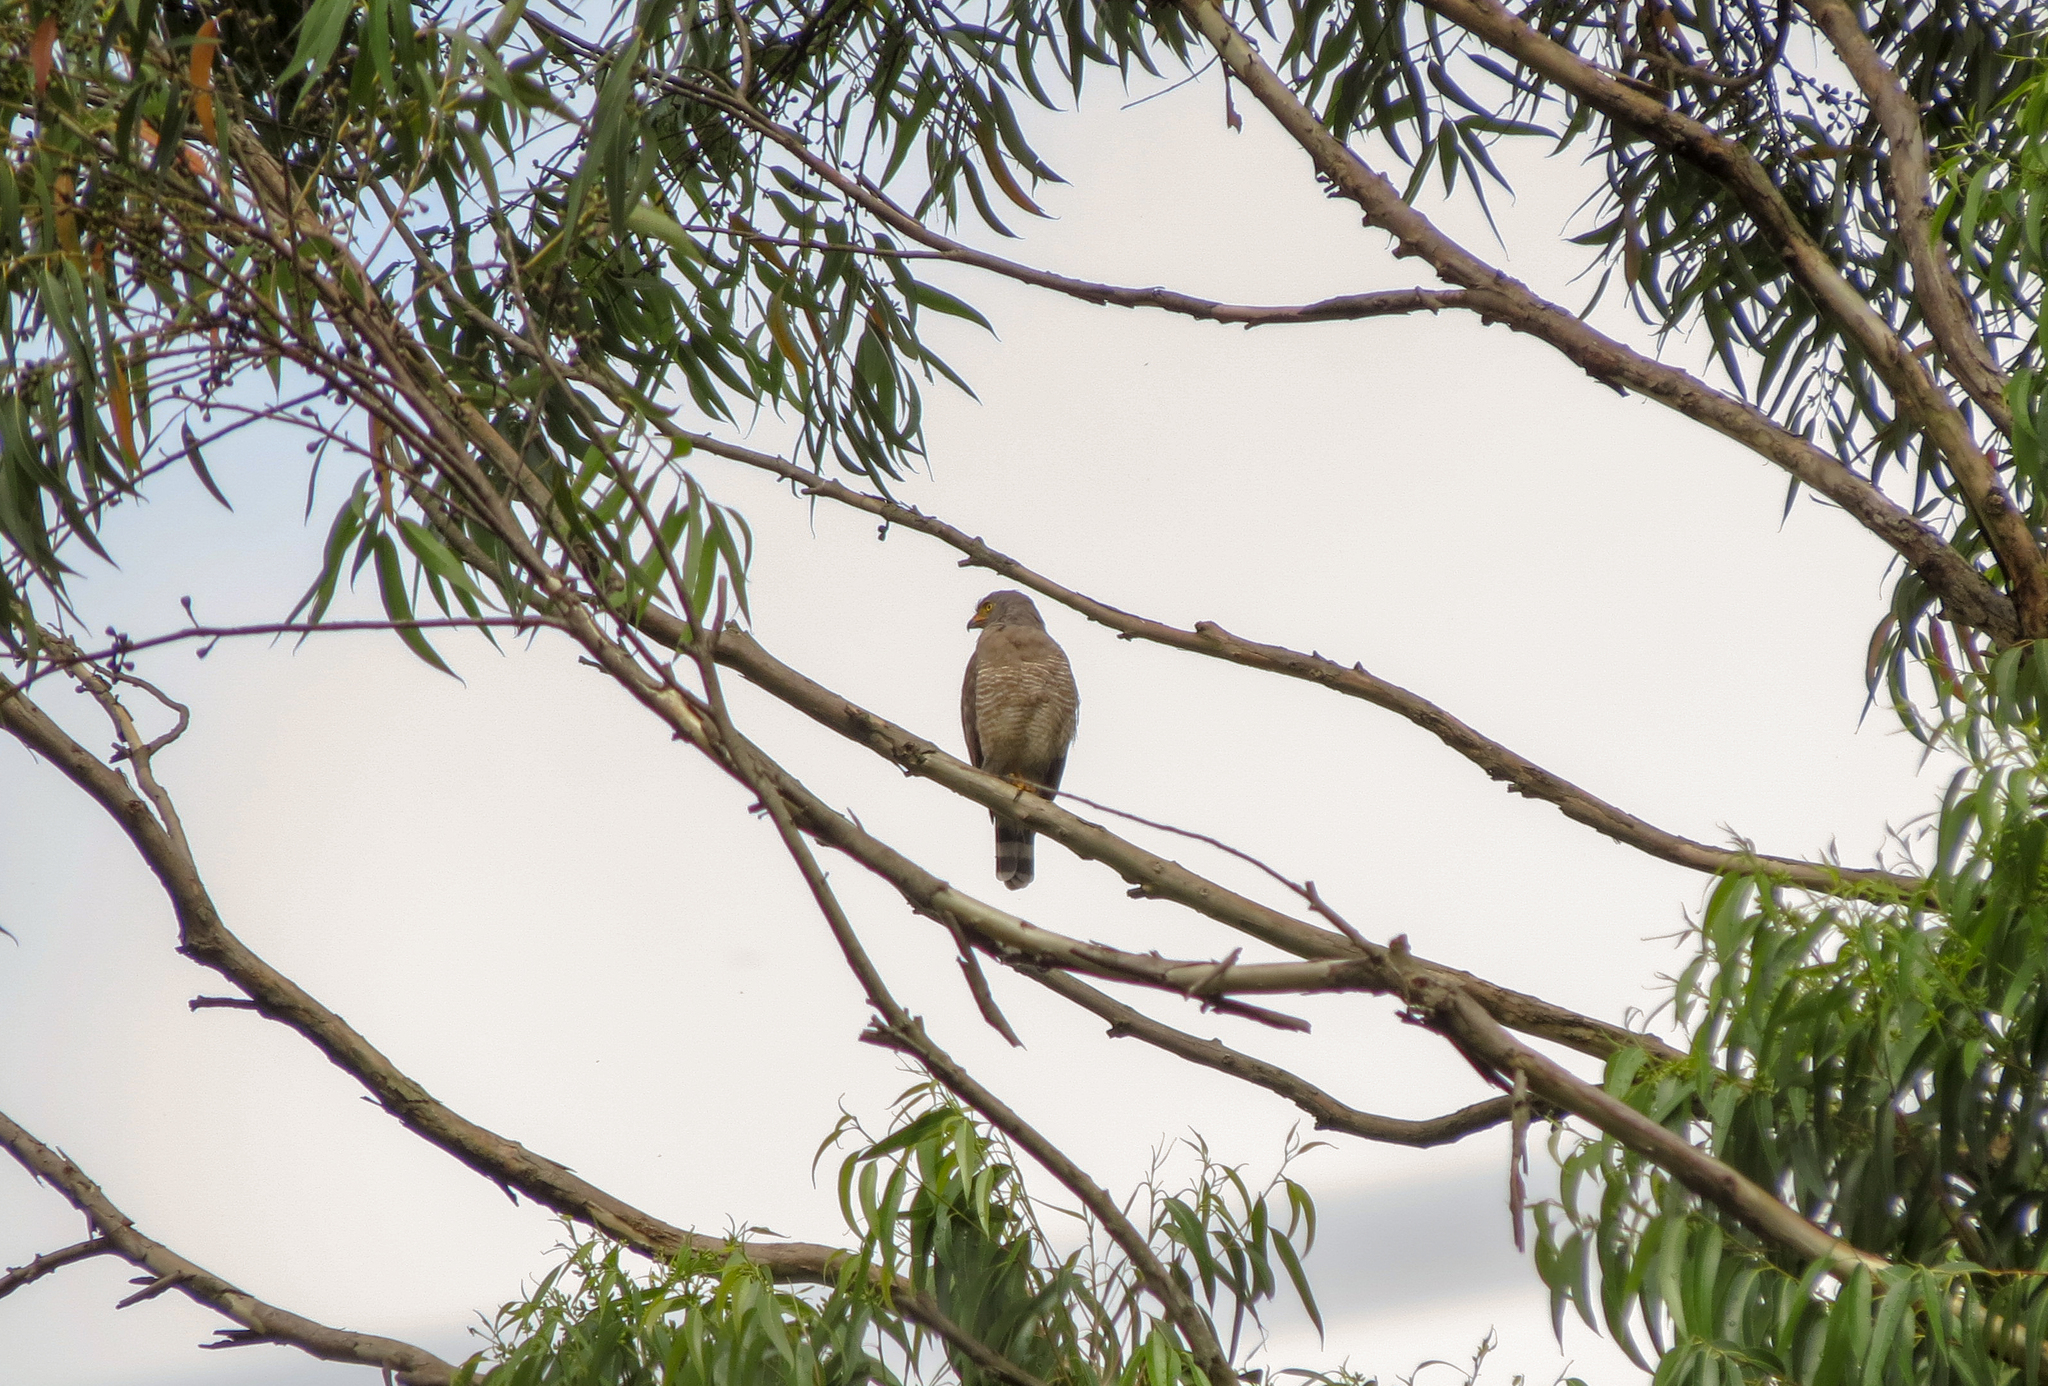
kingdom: Animalia
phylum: Chordata
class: Aves
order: Accipitriformes
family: Accipitridae
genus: Rupornis
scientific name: Rupornis magnirostris
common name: Roadside hawk
